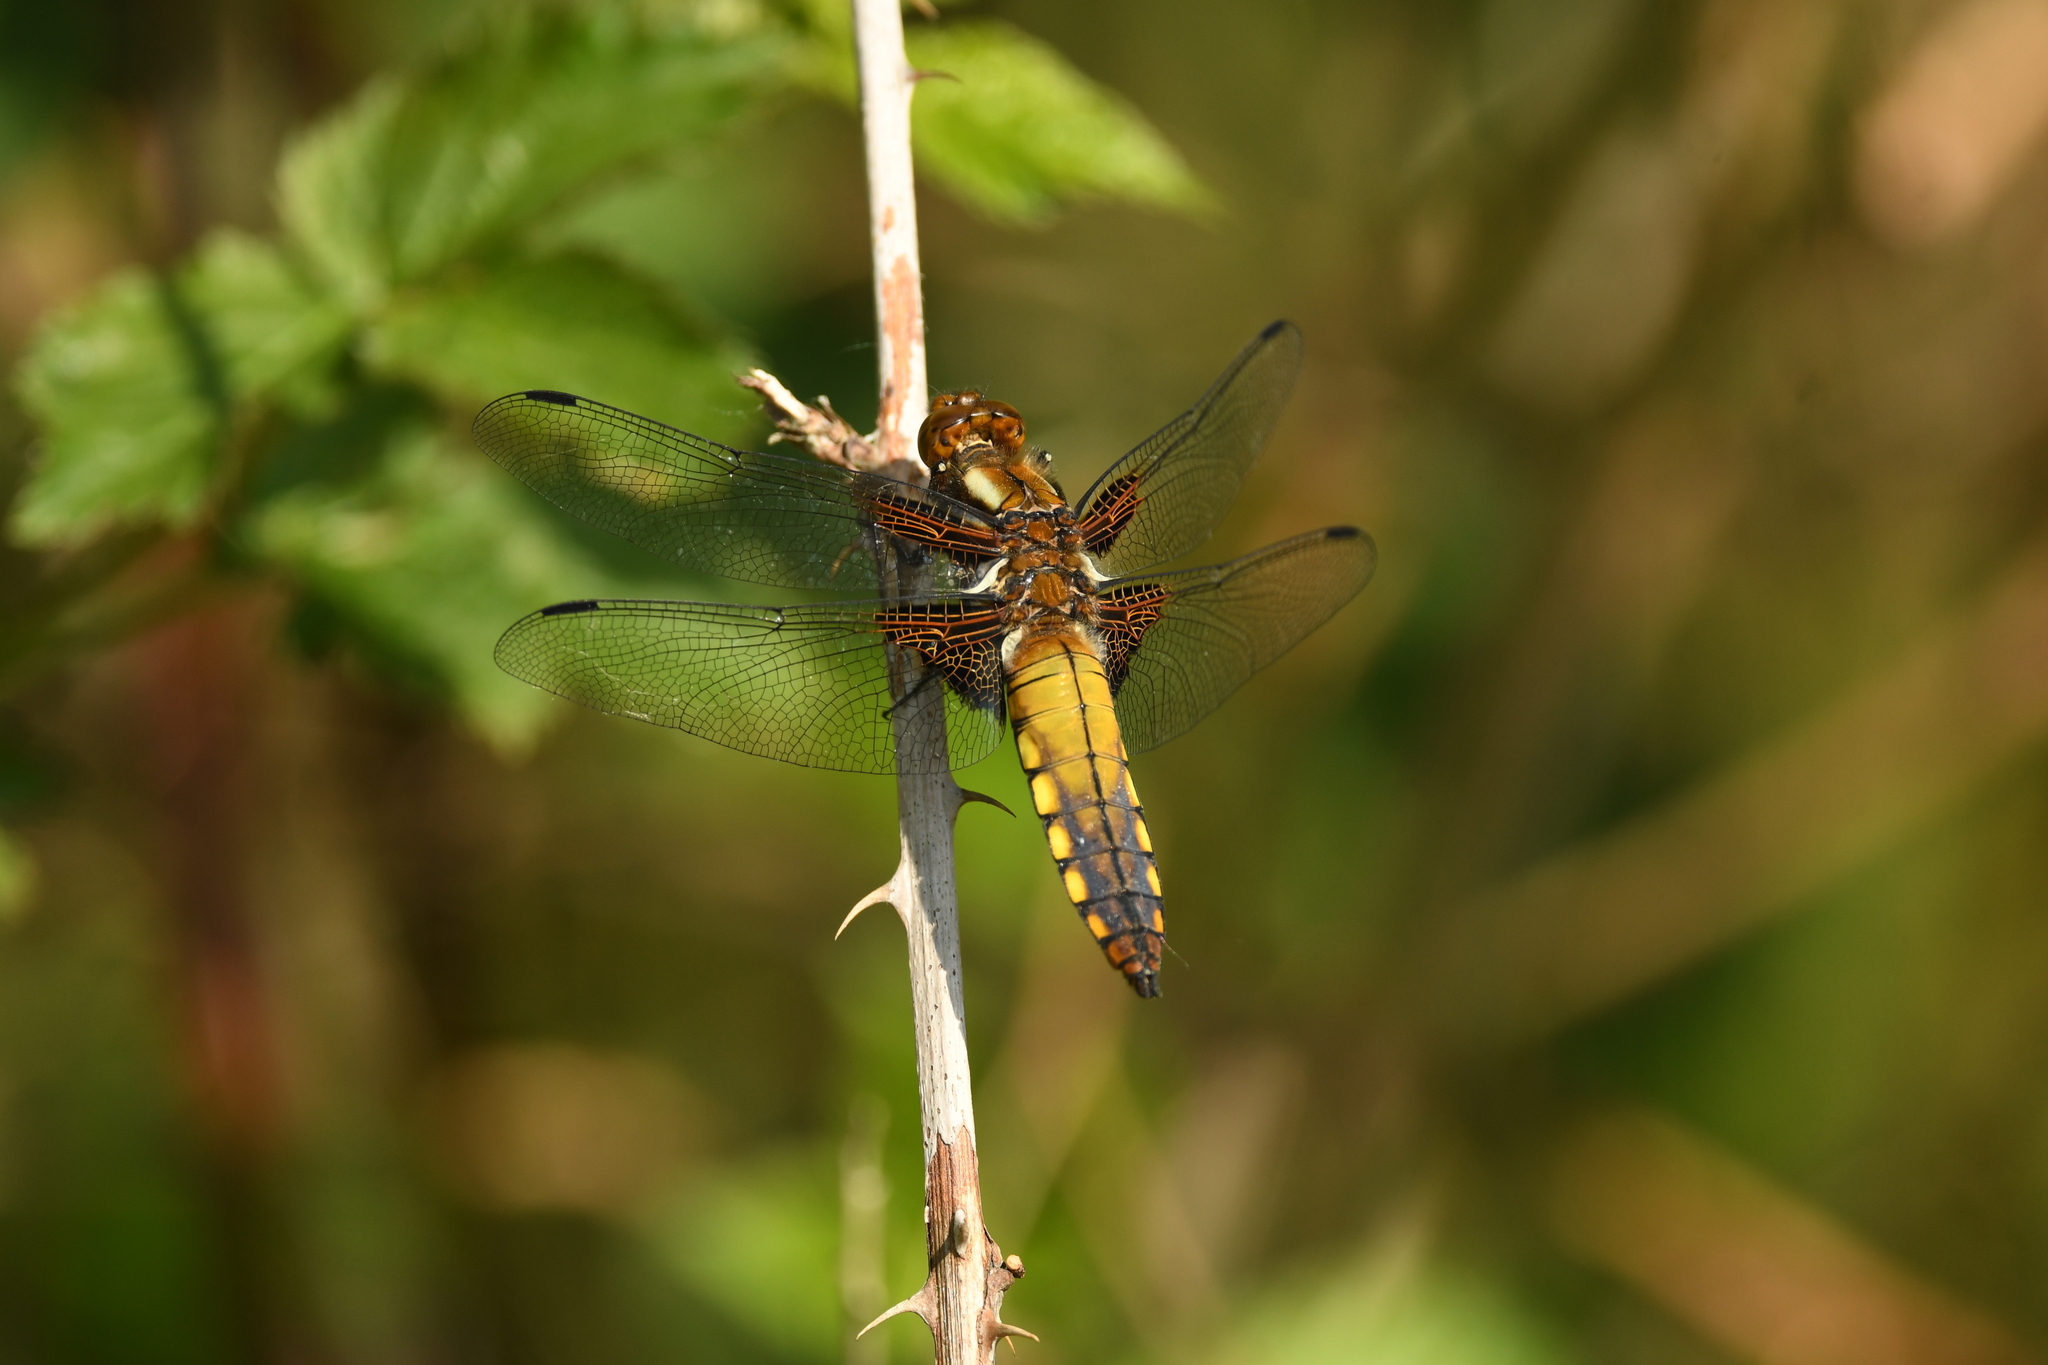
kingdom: Animalia
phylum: Arthropoda
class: Insecta
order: Odonata
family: Libellulidae
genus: Libellula
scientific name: Libellula depressa
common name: Broad-bodied chaser
